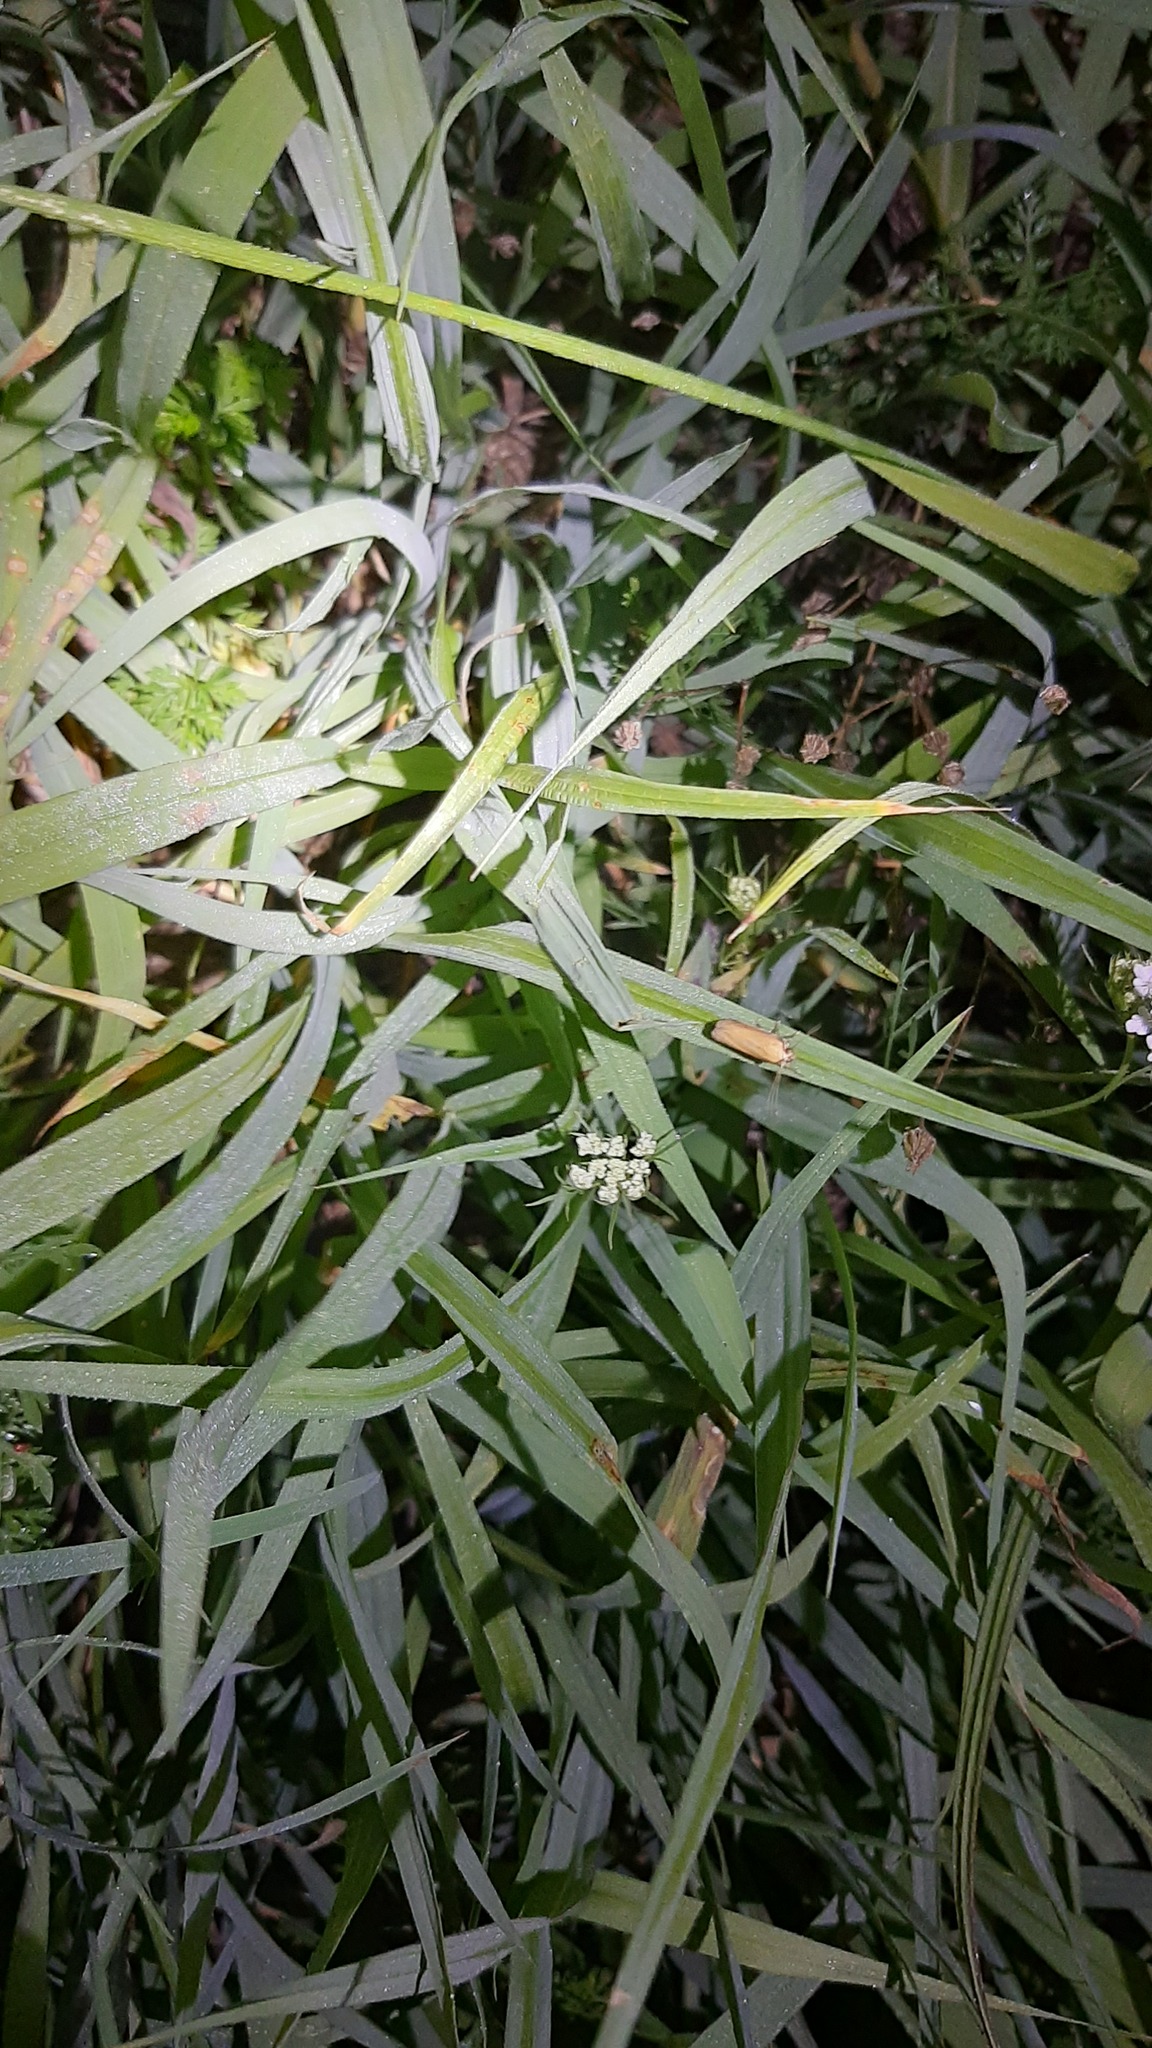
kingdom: Animalia
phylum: Arthropoda
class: Insecta
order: Lepidoptera
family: Pyralidae
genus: Oncocera
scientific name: Oncocera semirubella
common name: Rosy-striped knot-horn
